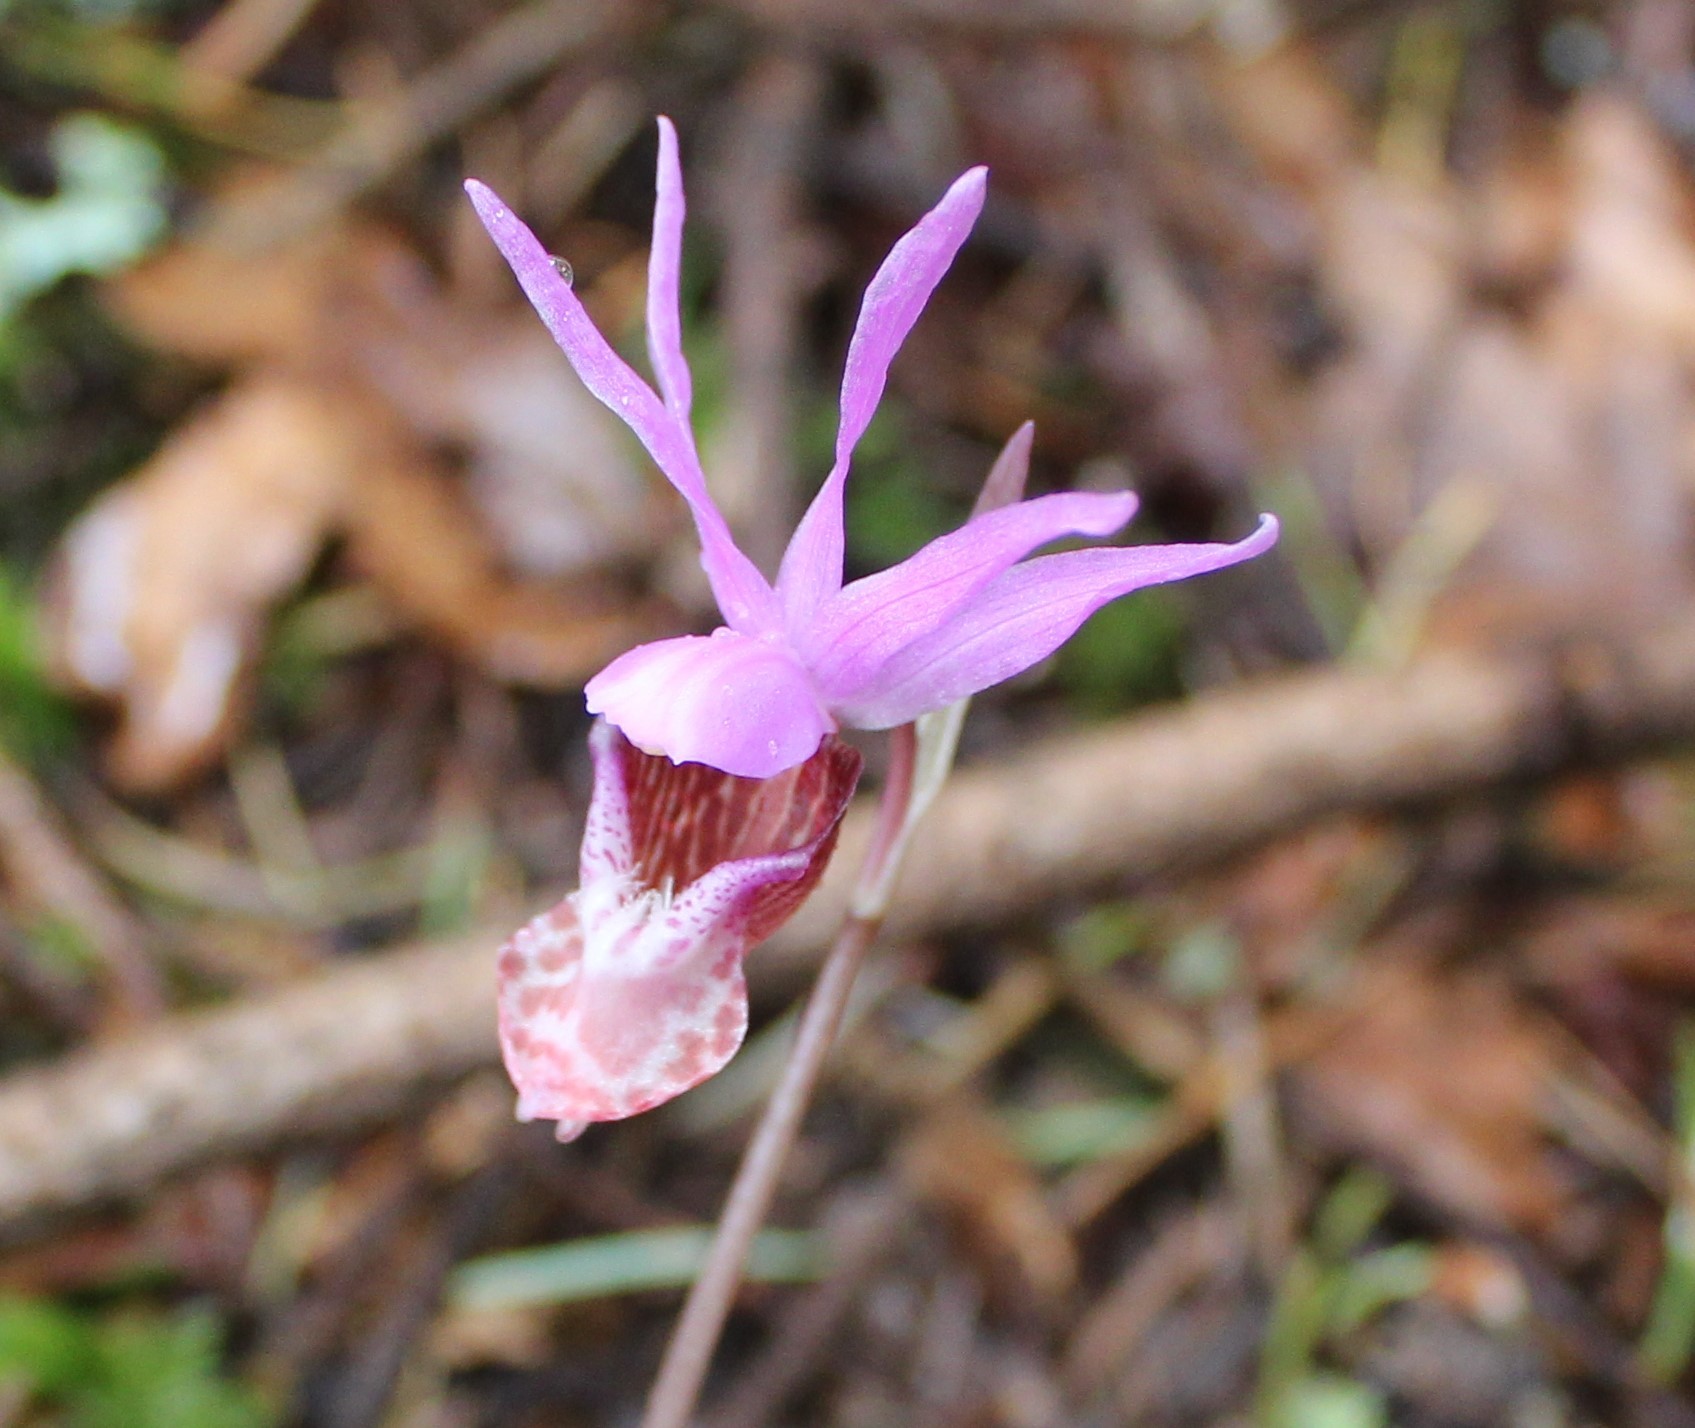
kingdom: Plantae
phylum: Tracheophyta
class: Liliopsida
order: Asparagales
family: Orchidaceae
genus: Calypso
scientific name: Calypso bulbosa
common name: Calypso
